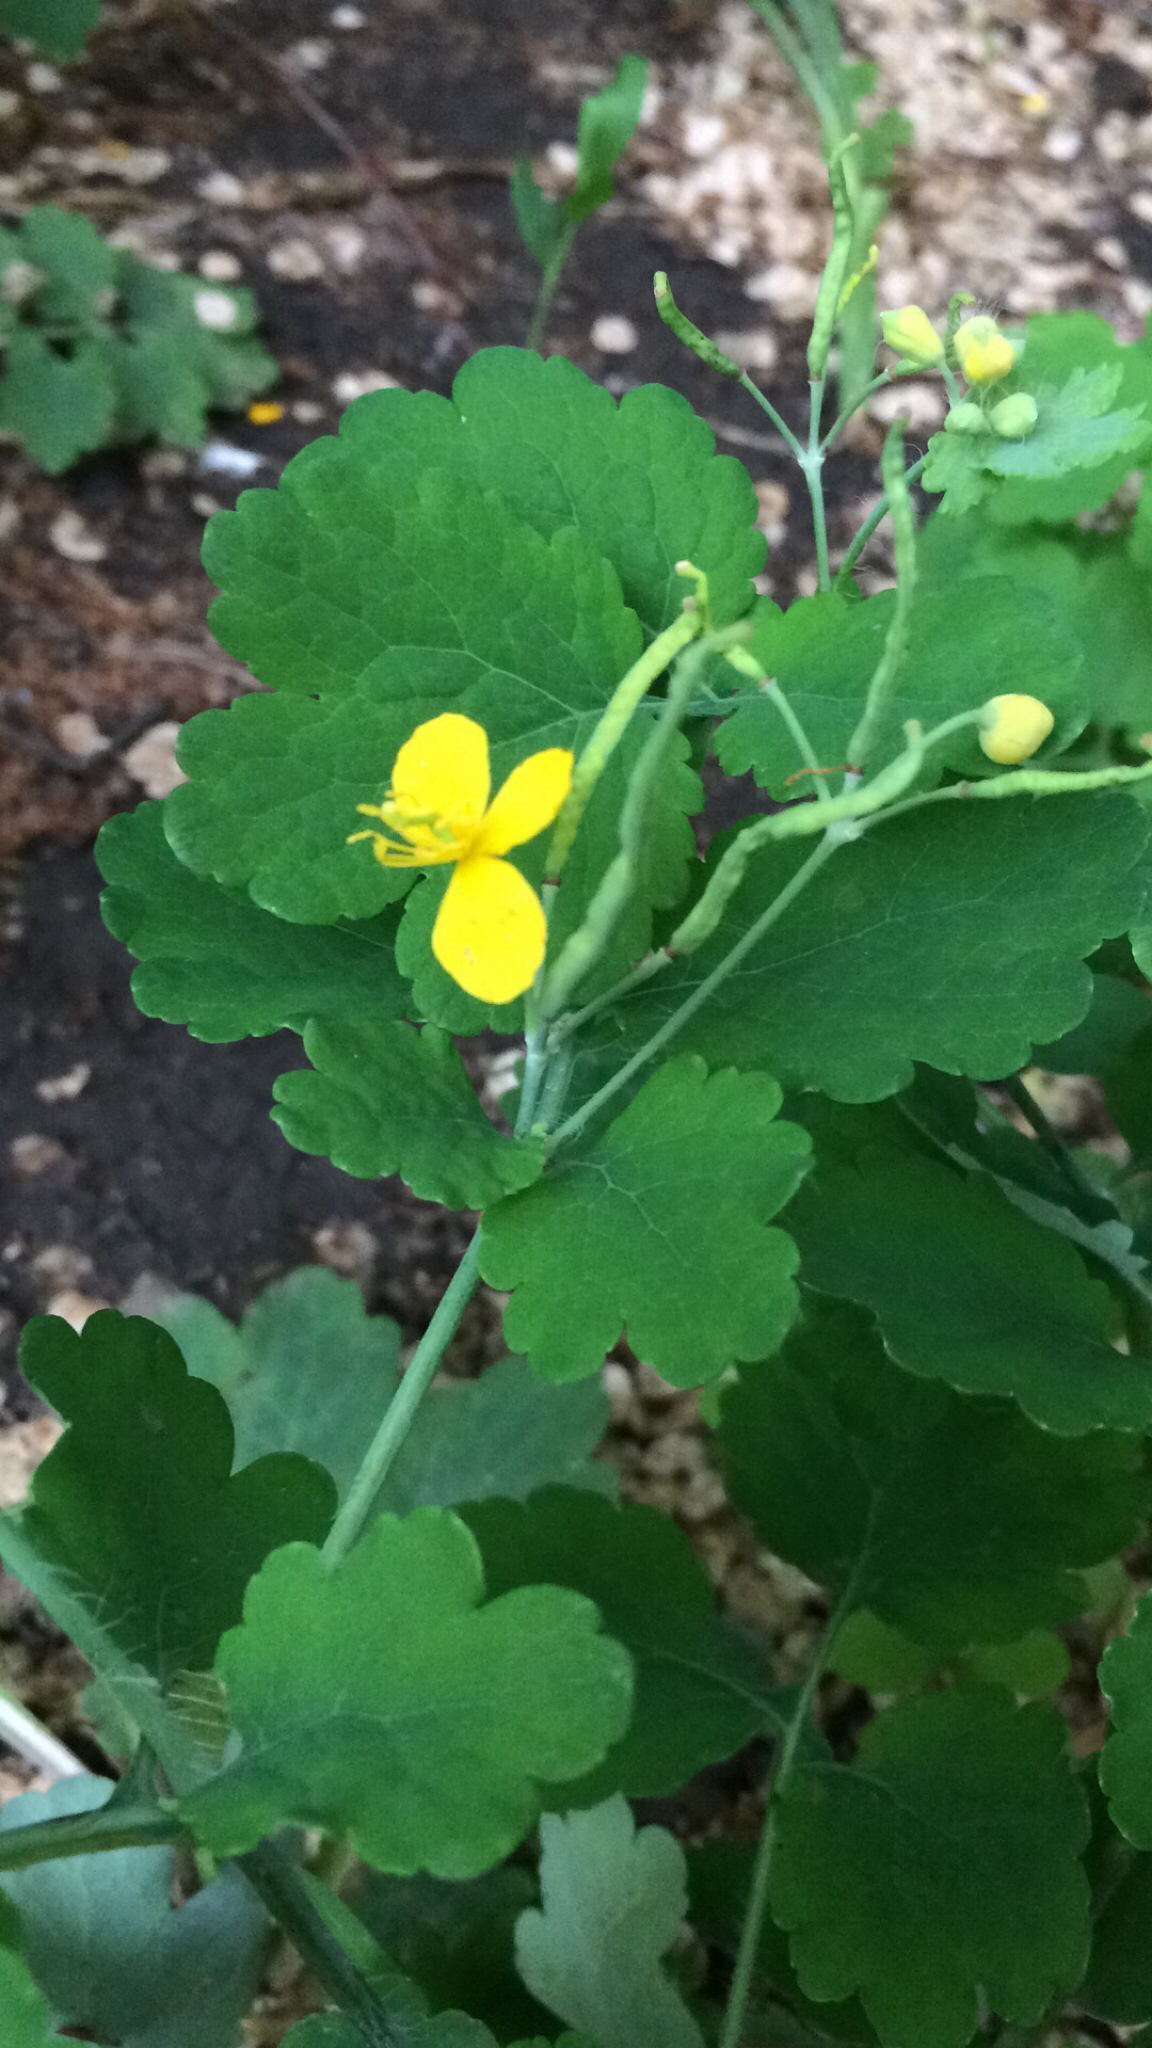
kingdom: Plantae
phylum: Tracheophyta
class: Magnoliopsida
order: Ranunculales
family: Papaveraceae
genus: Chelidonium
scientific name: Chelidonium majus
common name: Greater celandine
